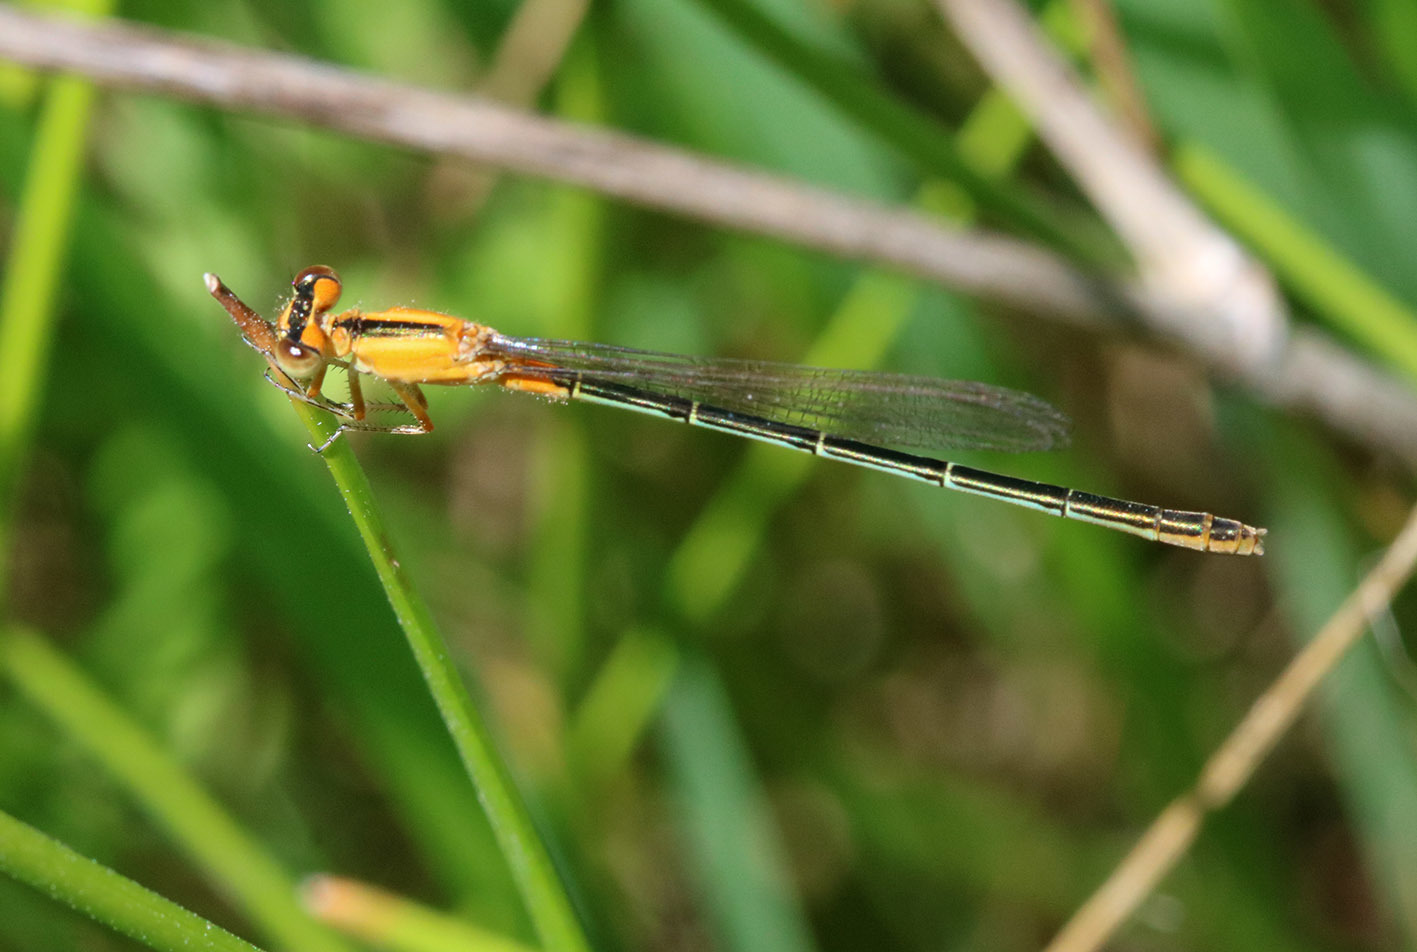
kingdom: Animalia
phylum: Arthropoda
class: Insecta
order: Odonata
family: Coenagrionidae
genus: Ischnura
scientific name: Ischnura fluviatilis
